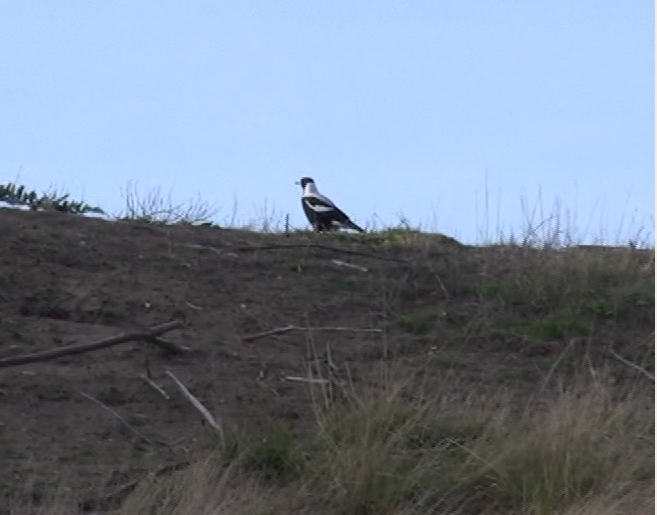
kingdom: Animalia
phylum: Chordata
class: Aves
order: Passeriformes
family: Cracticidae
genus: Gymnorhina
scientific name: Gymnorhina tibicen
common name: Australian magpie
